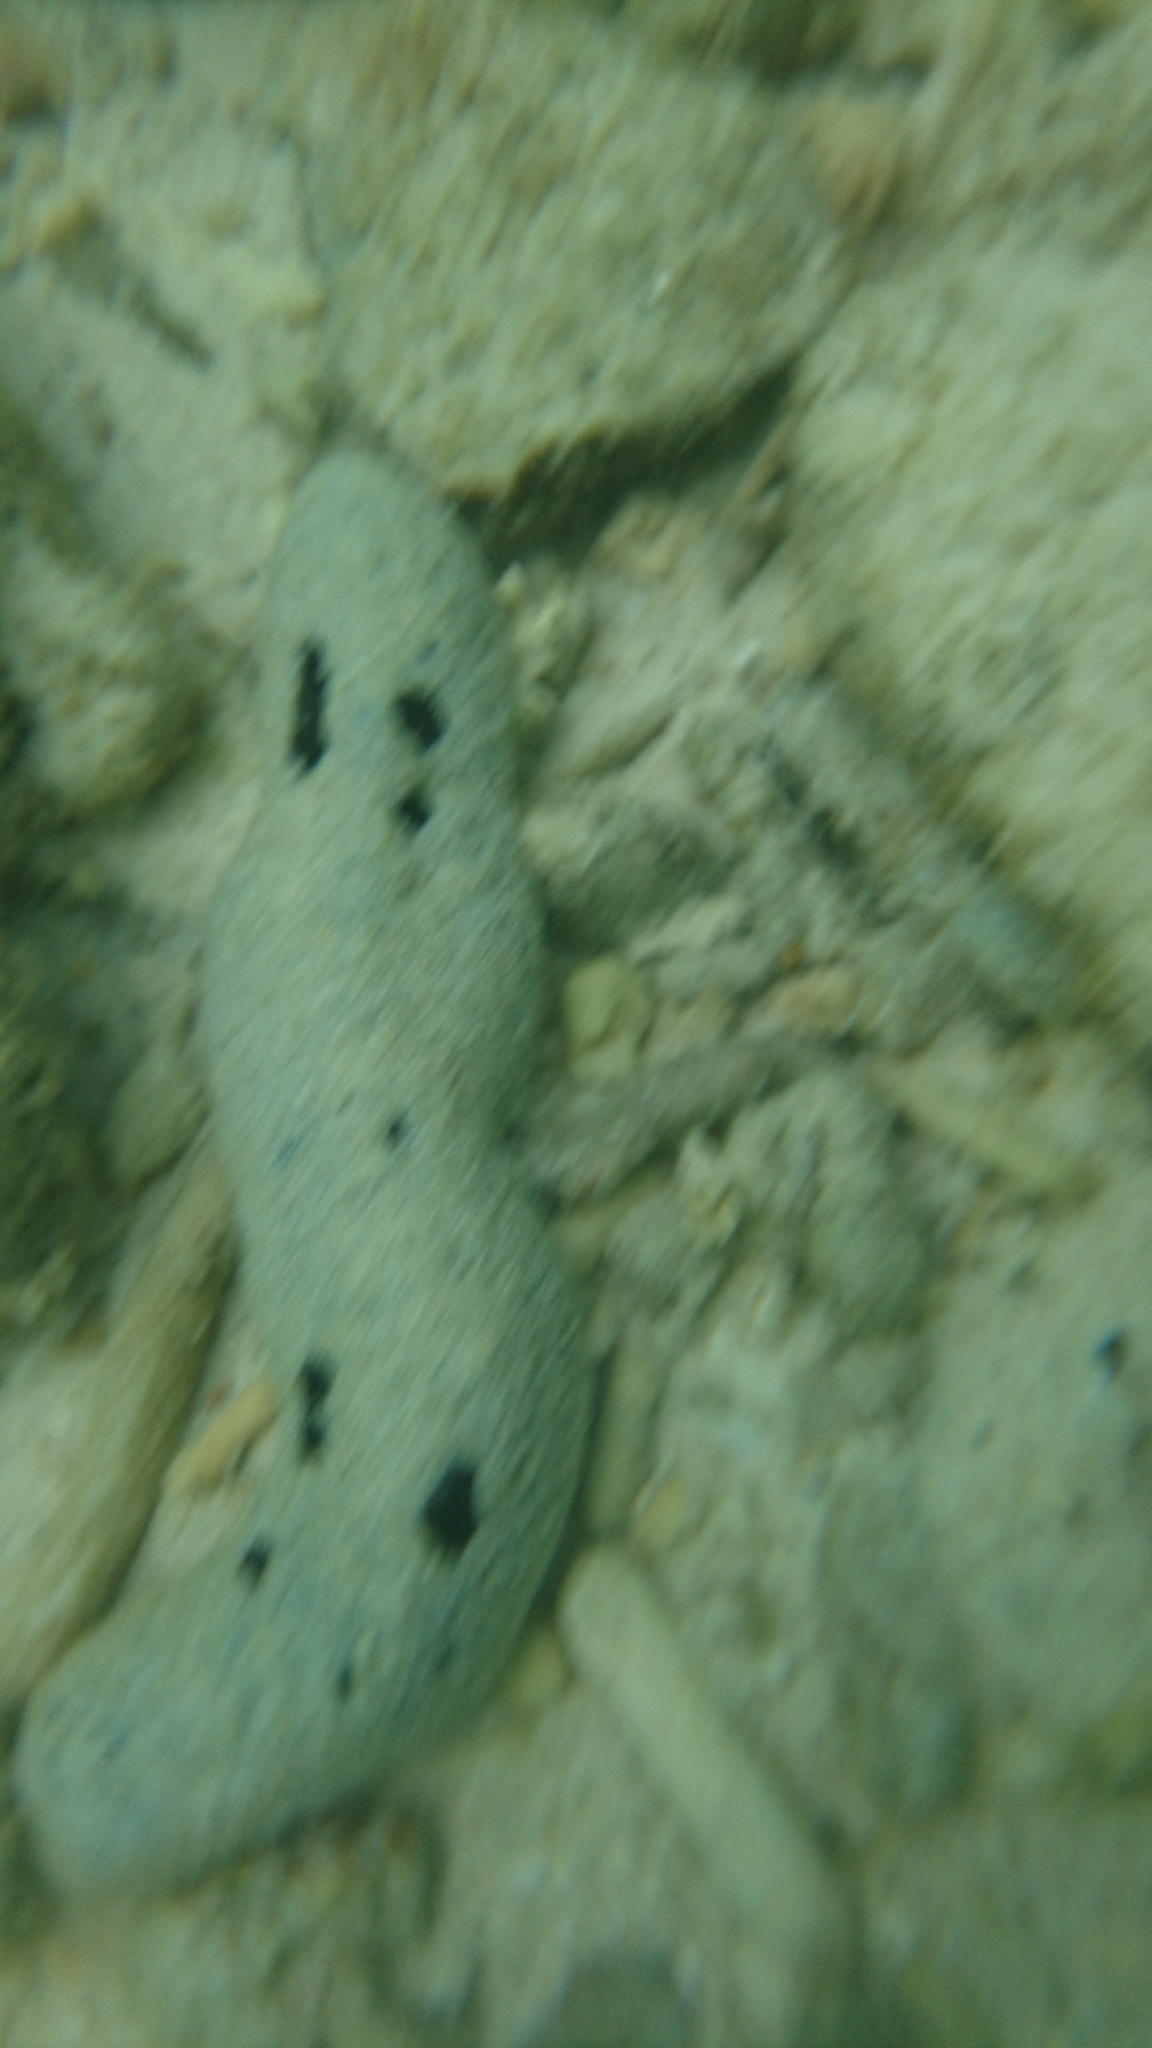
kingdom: Animalia
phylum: Echinodermata
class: Holothuroidea
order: Holothuriida
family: Holothuriidae
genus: Holothuria
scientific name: Holothuria atra
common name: Lollyfish
